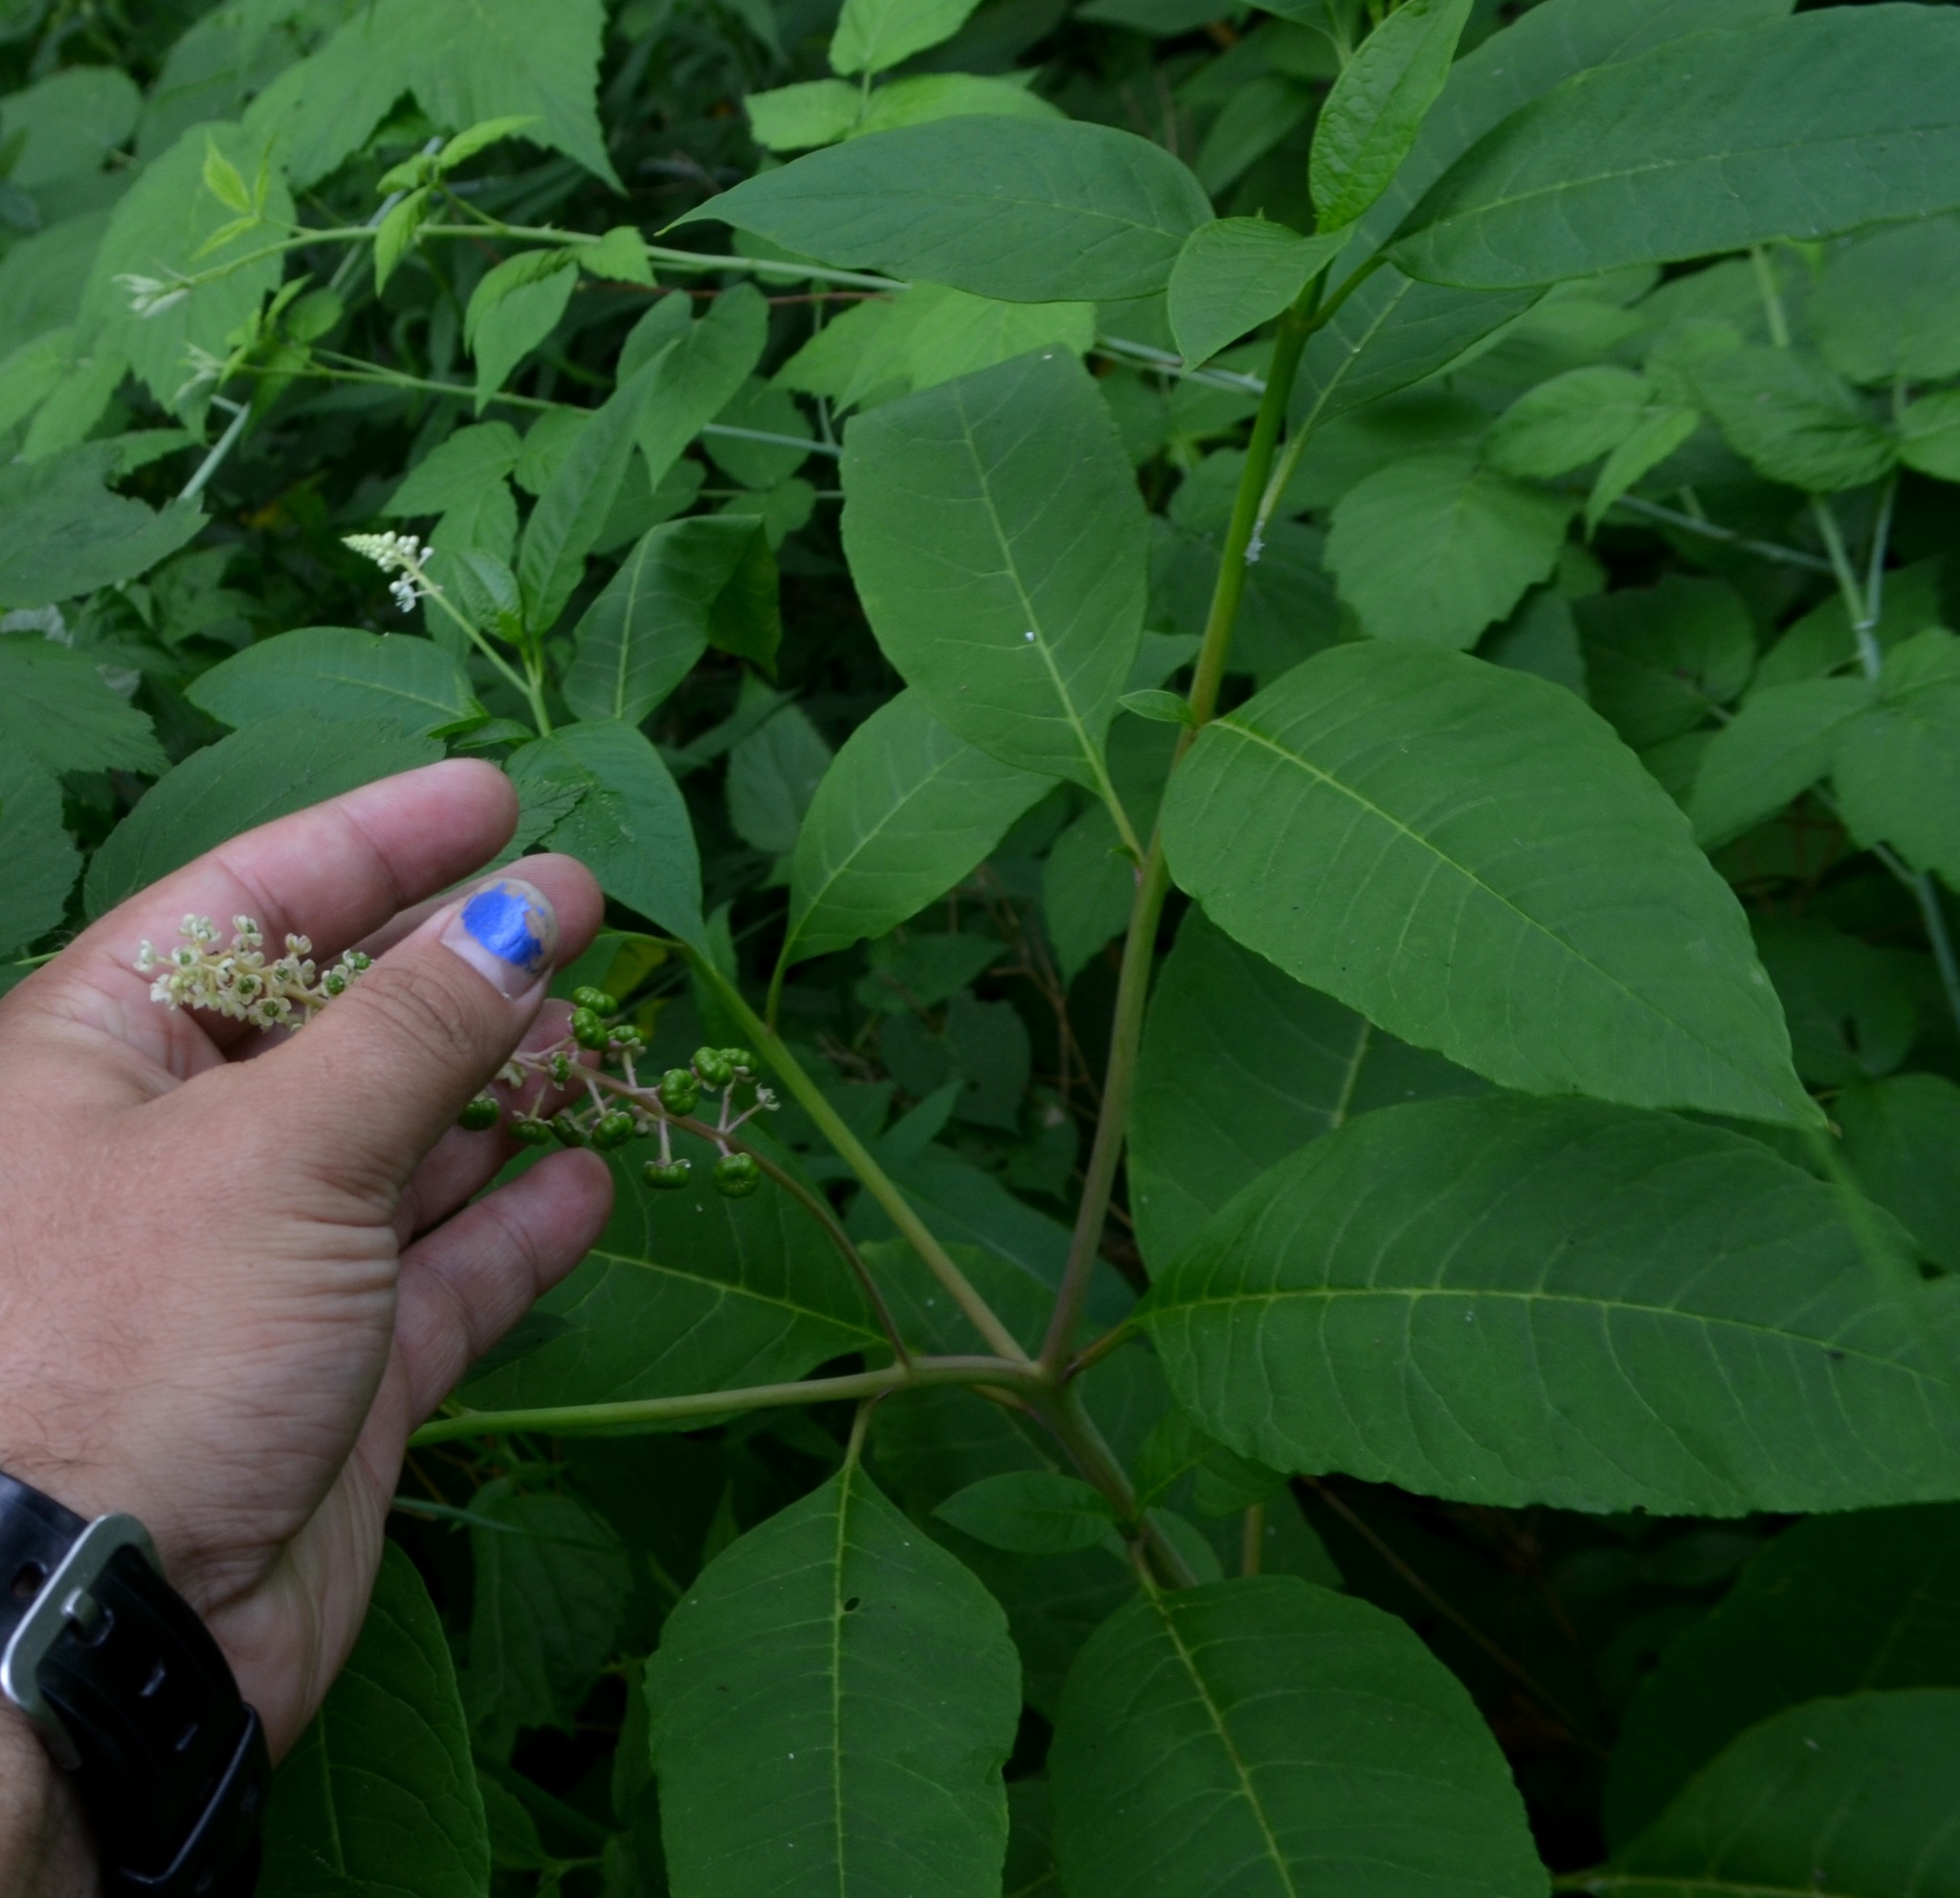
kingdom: Plantae
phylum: Tracheophyta
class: Magnoliopsida
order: Caryophyllales
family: Phytolaccaceae
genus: Phytolacca
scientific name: Phytolacca americana
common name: American pokeweed
